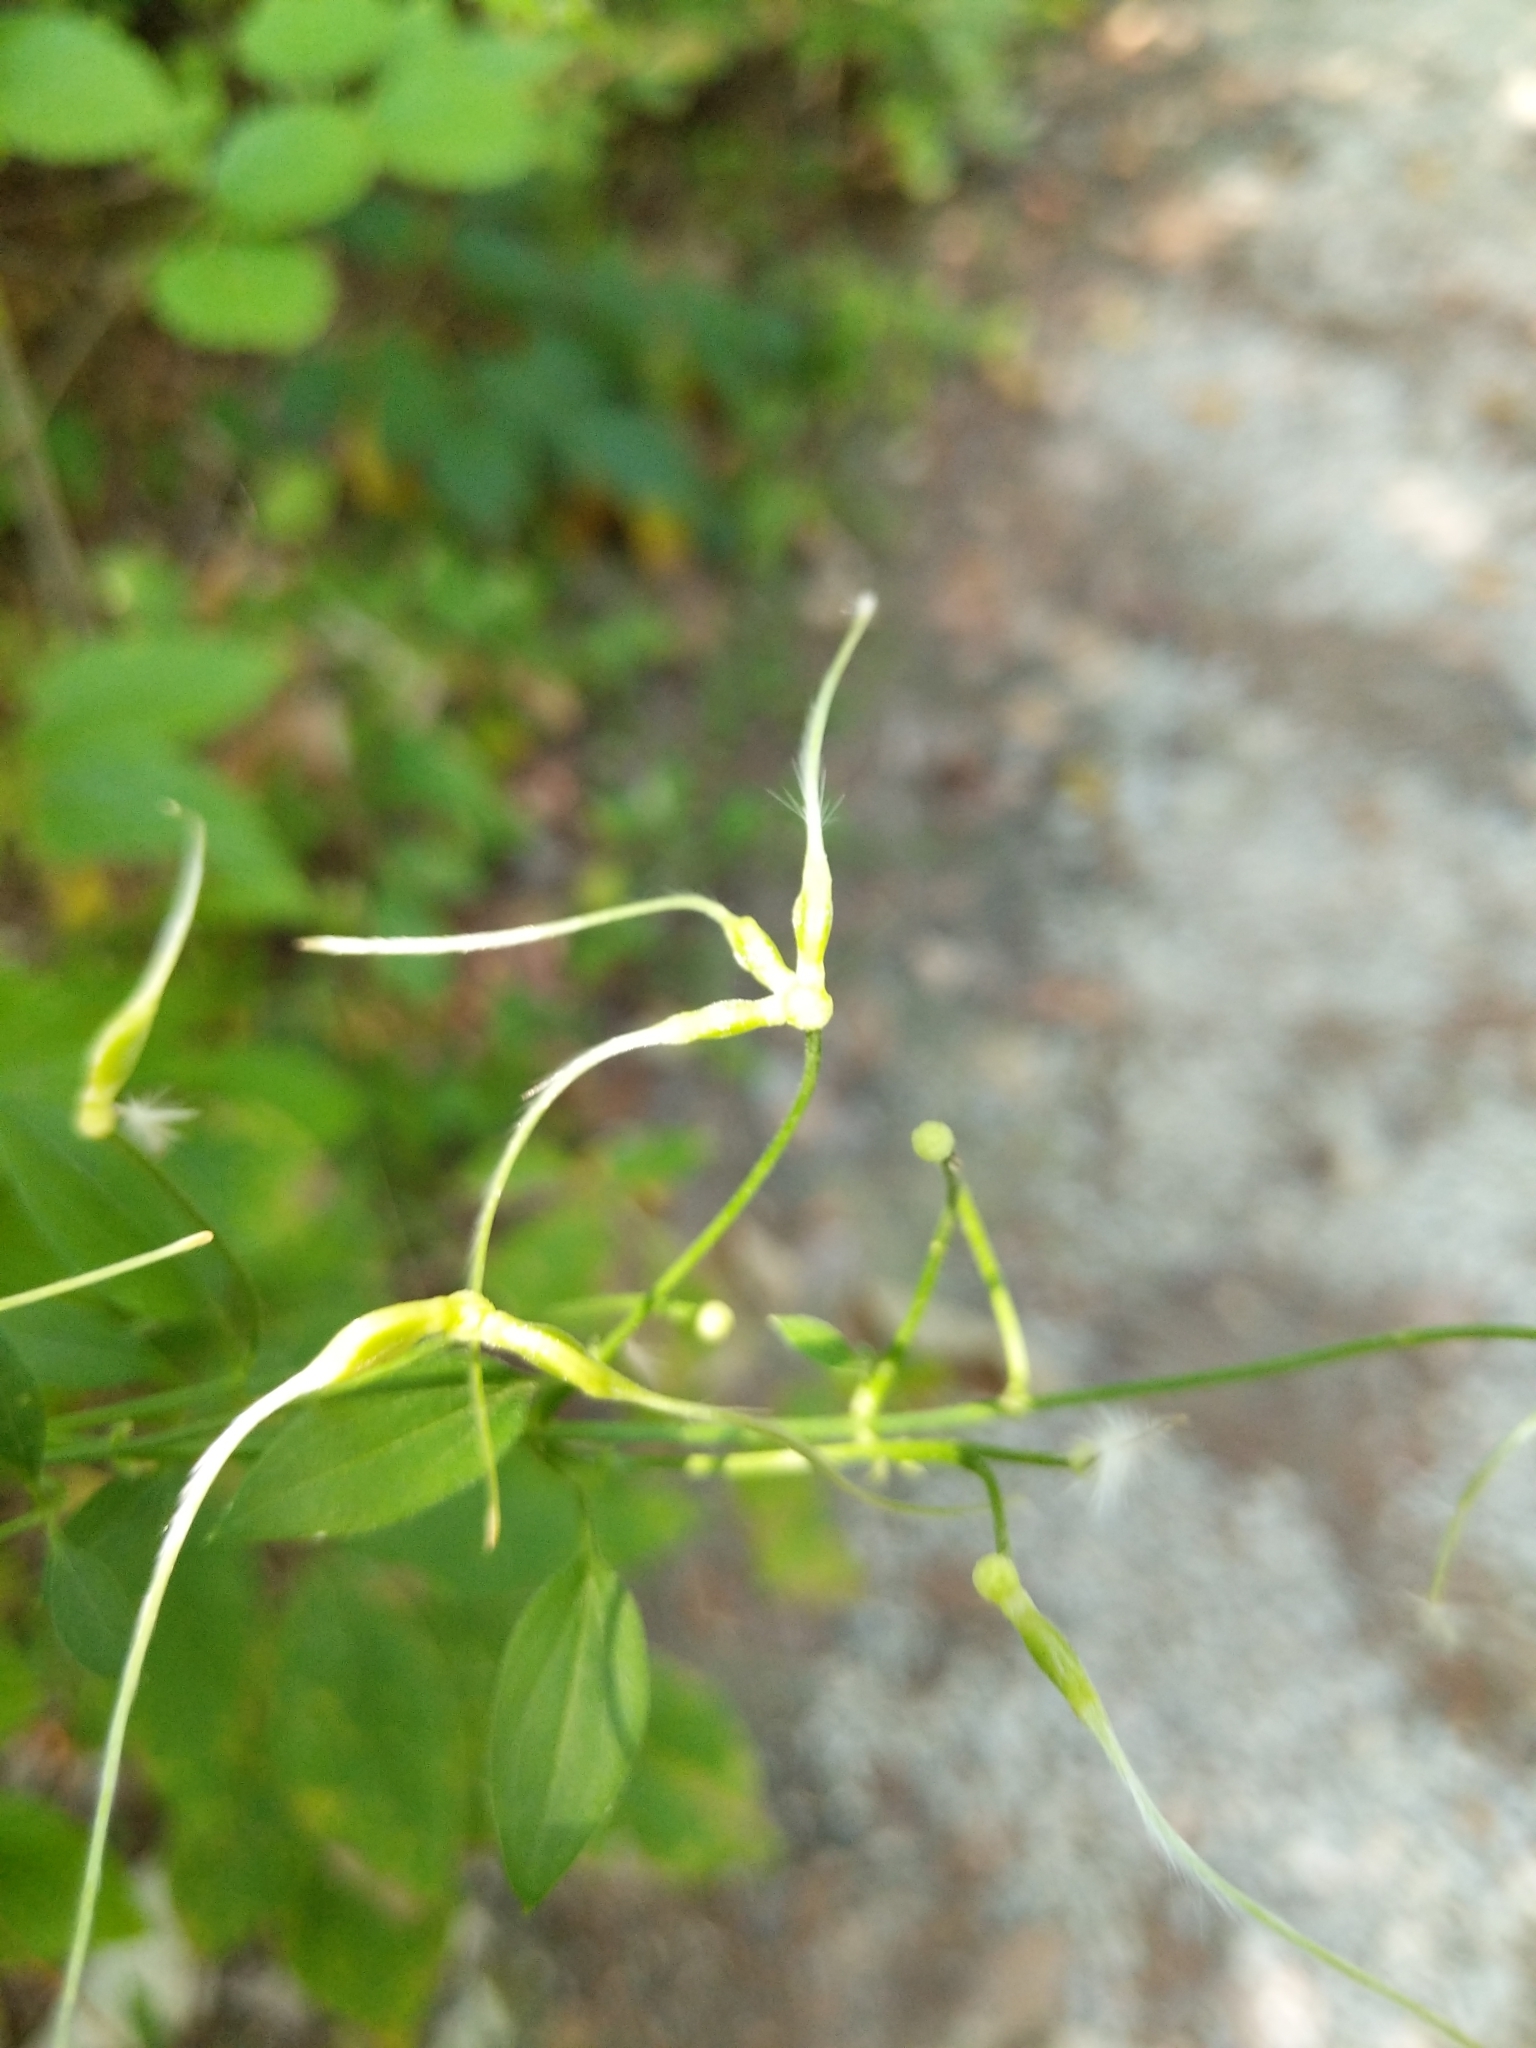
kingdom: Plantae
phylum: Tracheophyta
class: Magnoliopsida
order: Ranunculales
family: Ranunculaceae
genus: Clematis
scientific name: Clematis terniflora
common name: Sweet autumn clematis
